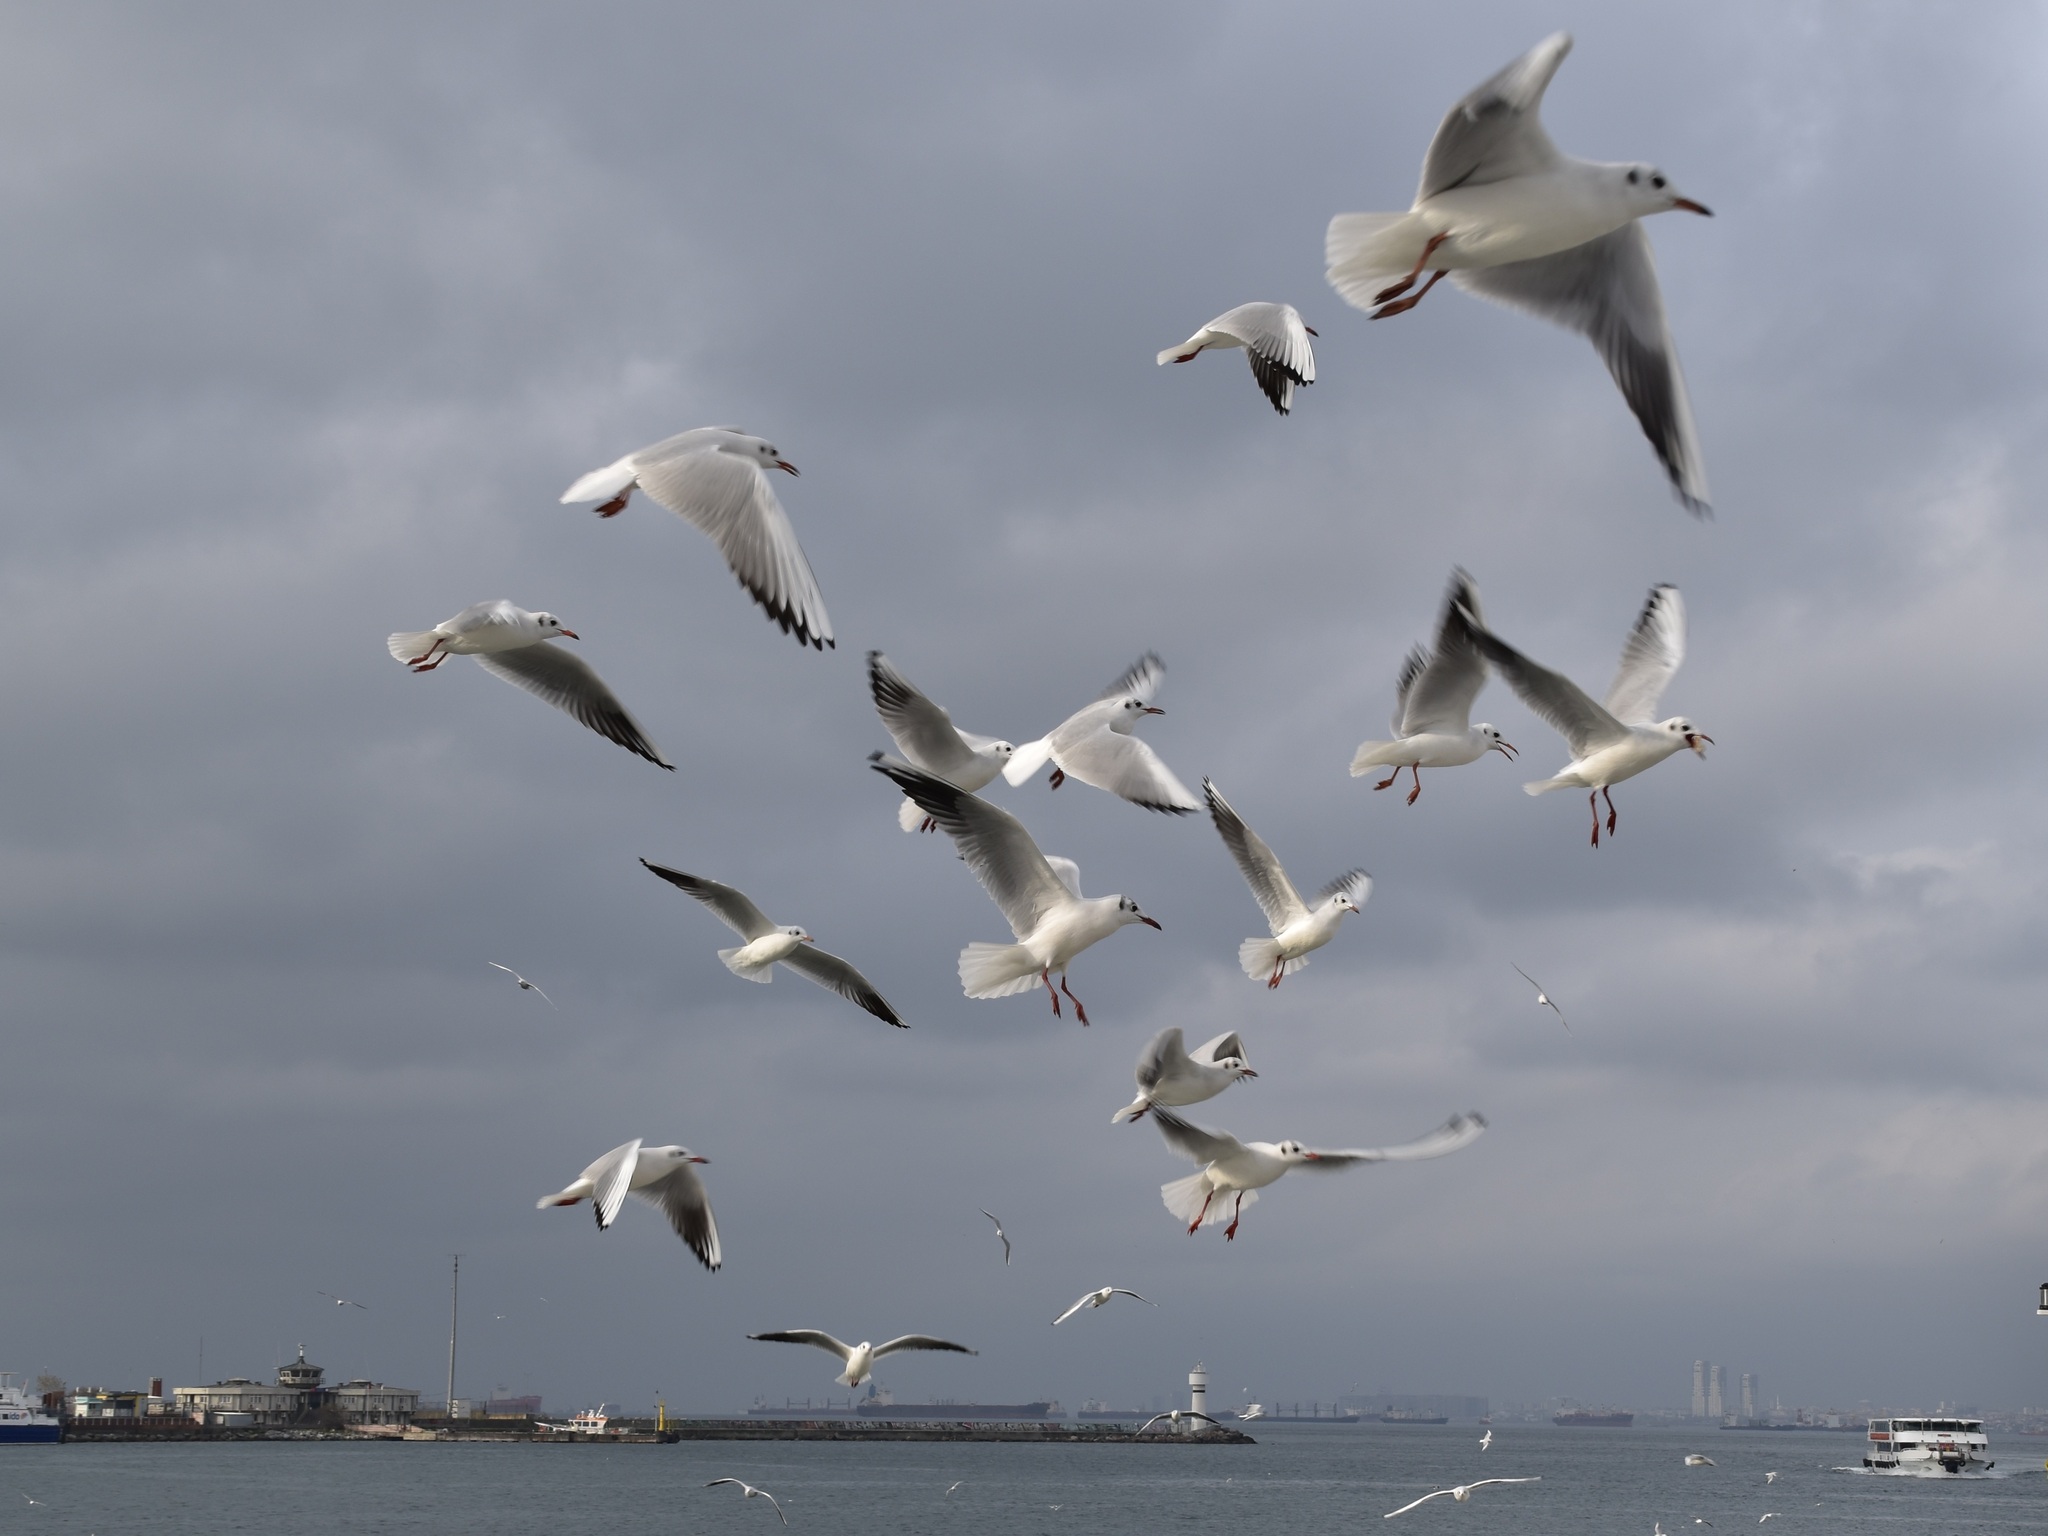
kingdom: Animalia
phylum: Chordata
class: Aves
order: Charadriiformes
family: Laridae
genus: Chroicocephalus
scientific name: Chroicocephalus ridibundus
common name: Black-headed gull
